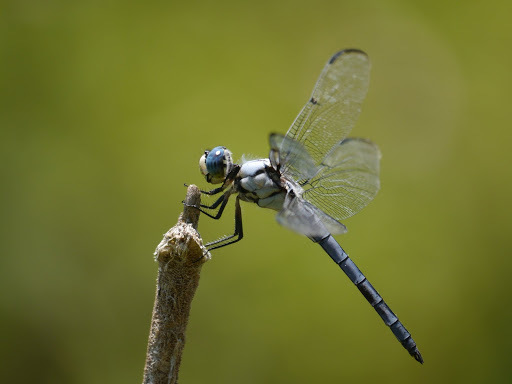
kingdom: Animalia
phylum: Arthropoda
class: Insecta
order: Odonata
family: Libellulidae
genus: Libellula
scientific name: Libellula vibrans
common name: Great blue skimmer
